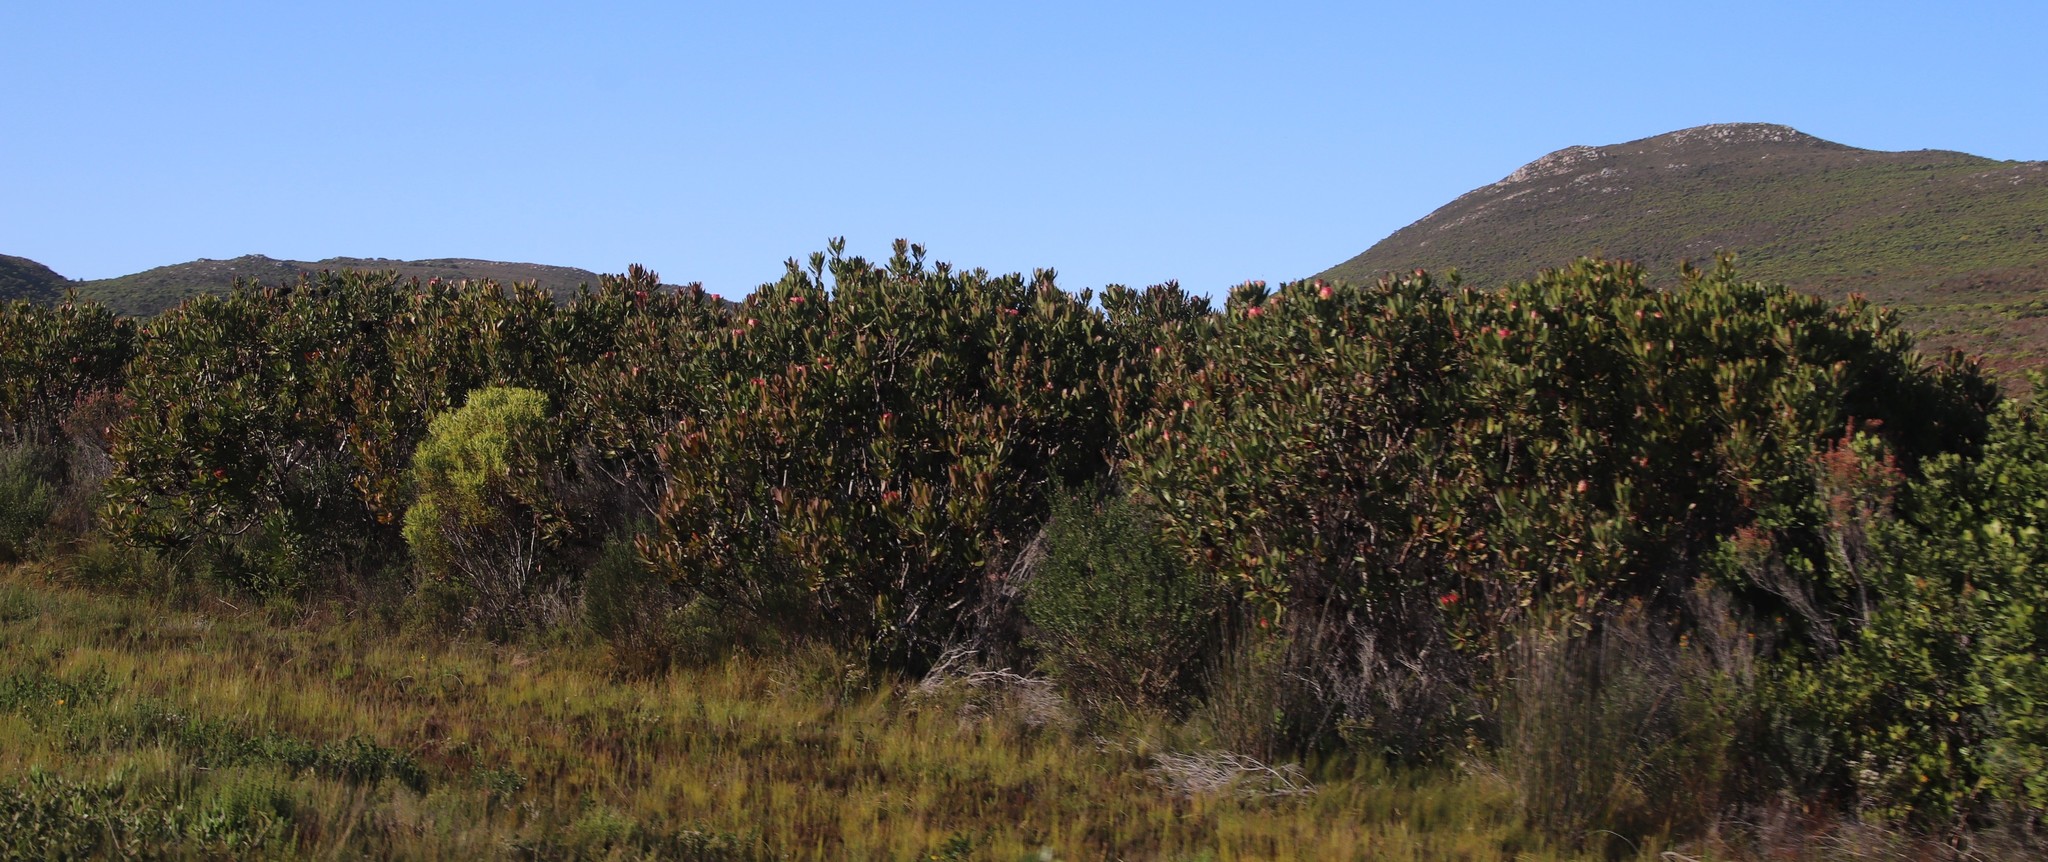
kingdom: Plantae
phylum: Tracheophyta
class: Magnoliopsida
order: Proteales
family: Proteaceae
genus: Protea
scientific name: Protea obtusifolia
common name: Bredasdorp sugarbush
